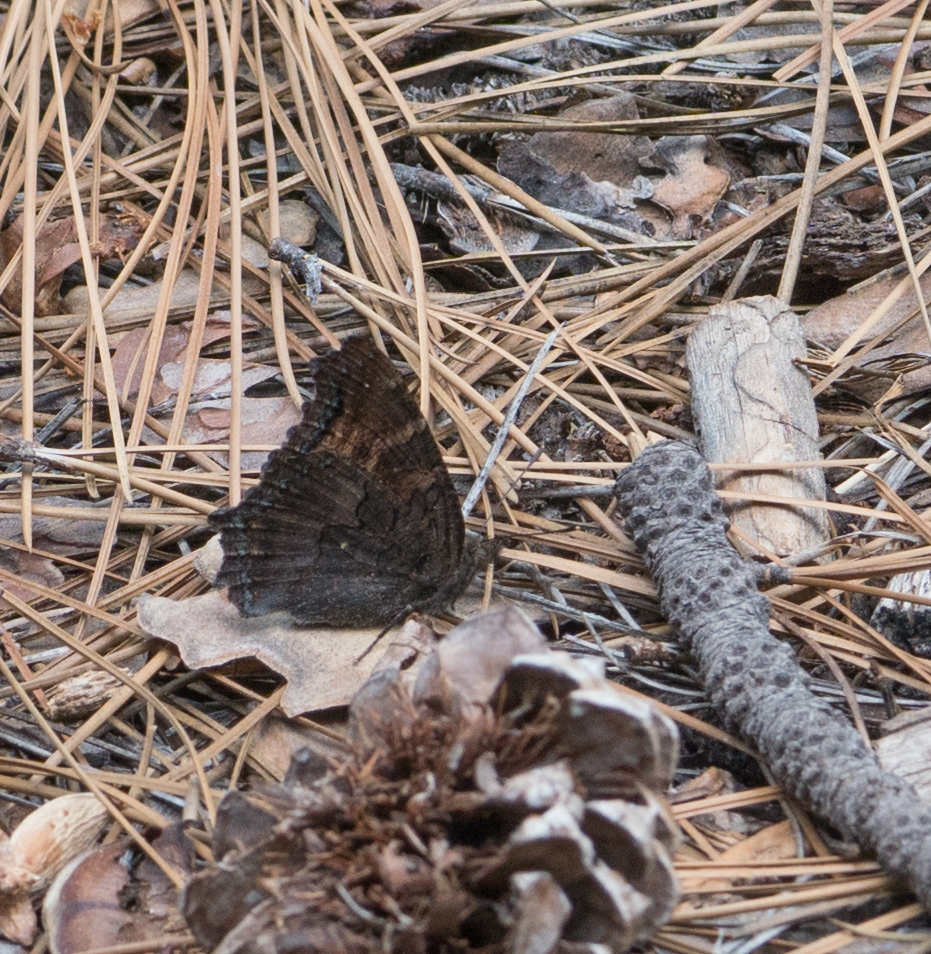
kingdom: Animalia
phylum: Arthropoda
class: Insecta
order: Lepidoptera
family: Nymphalidae
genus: Nymphalis
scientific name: Nymphalis californica
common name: California tortoiseshell
